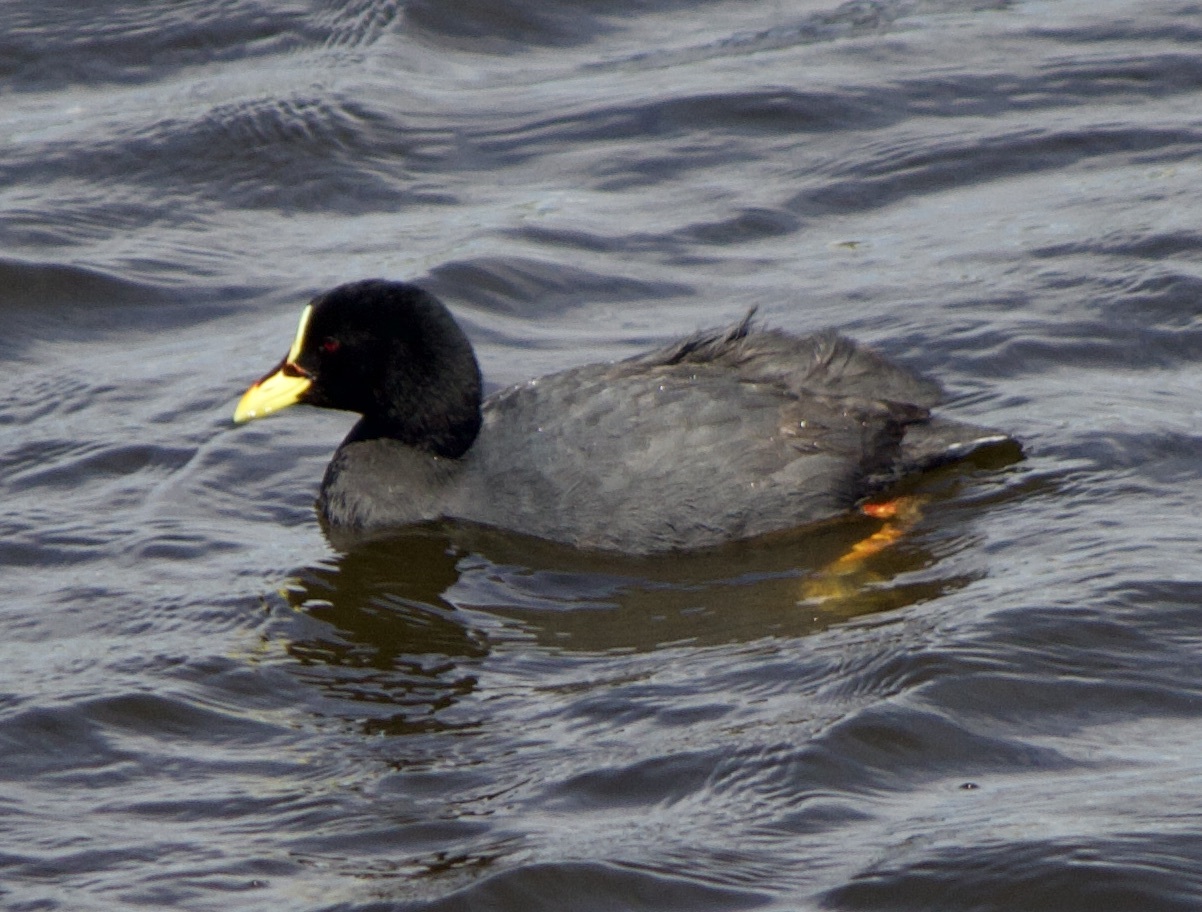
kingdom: Animalia
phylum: Chordata
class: Aves
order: Gruiformes
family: Rallidae
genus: Fulica
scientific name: Fulica armillata
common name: Red-gartered coot
